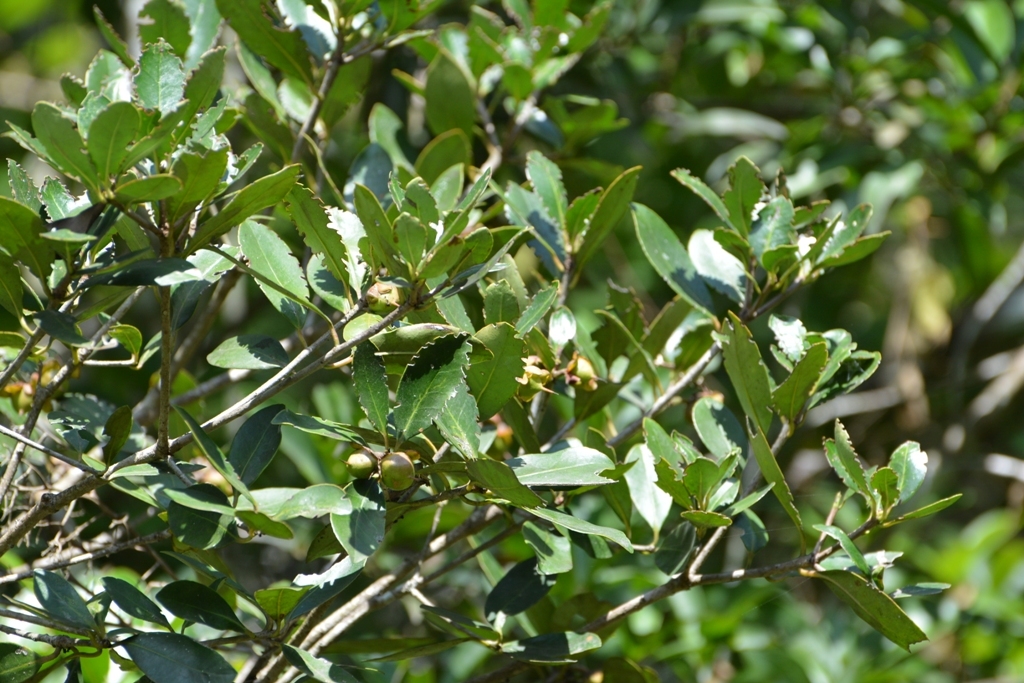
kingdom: Plantae
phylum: Tracheophyta
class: Magnoliopsida
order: Ericales
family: Pentaphylacaceae
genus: Ternstroemia
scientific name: Ternstroemia tepezapote
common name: Copey vera
